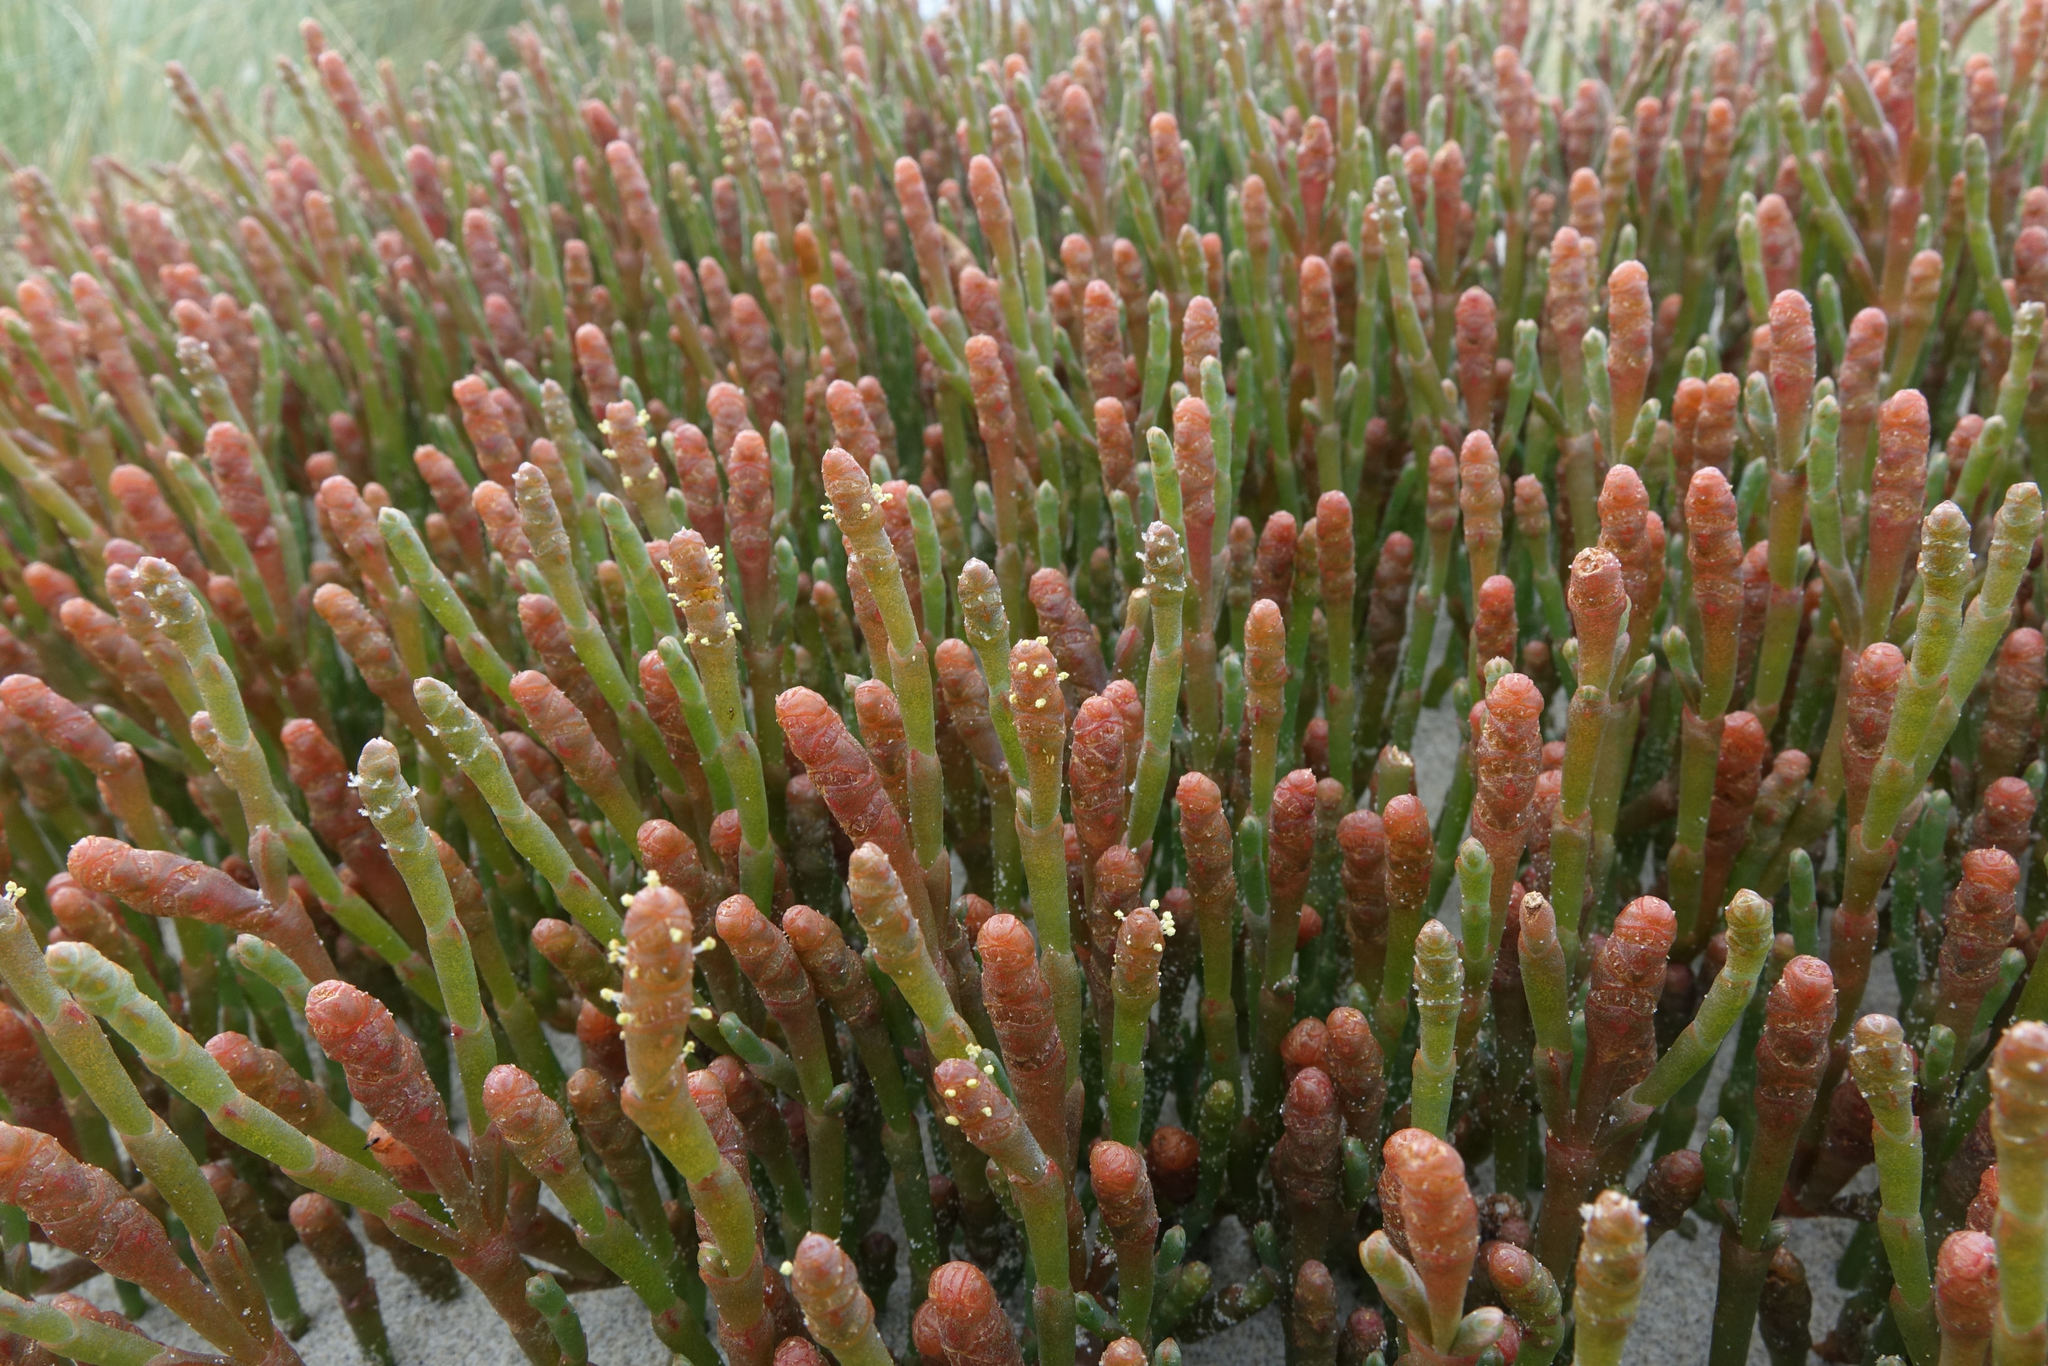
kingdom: Plantae
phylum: Tracheophyta
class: Magnoliopsida
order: Caryophyllales
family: Amaranthaceae
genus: Salicornia
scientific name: Salicornia quinqueflora
